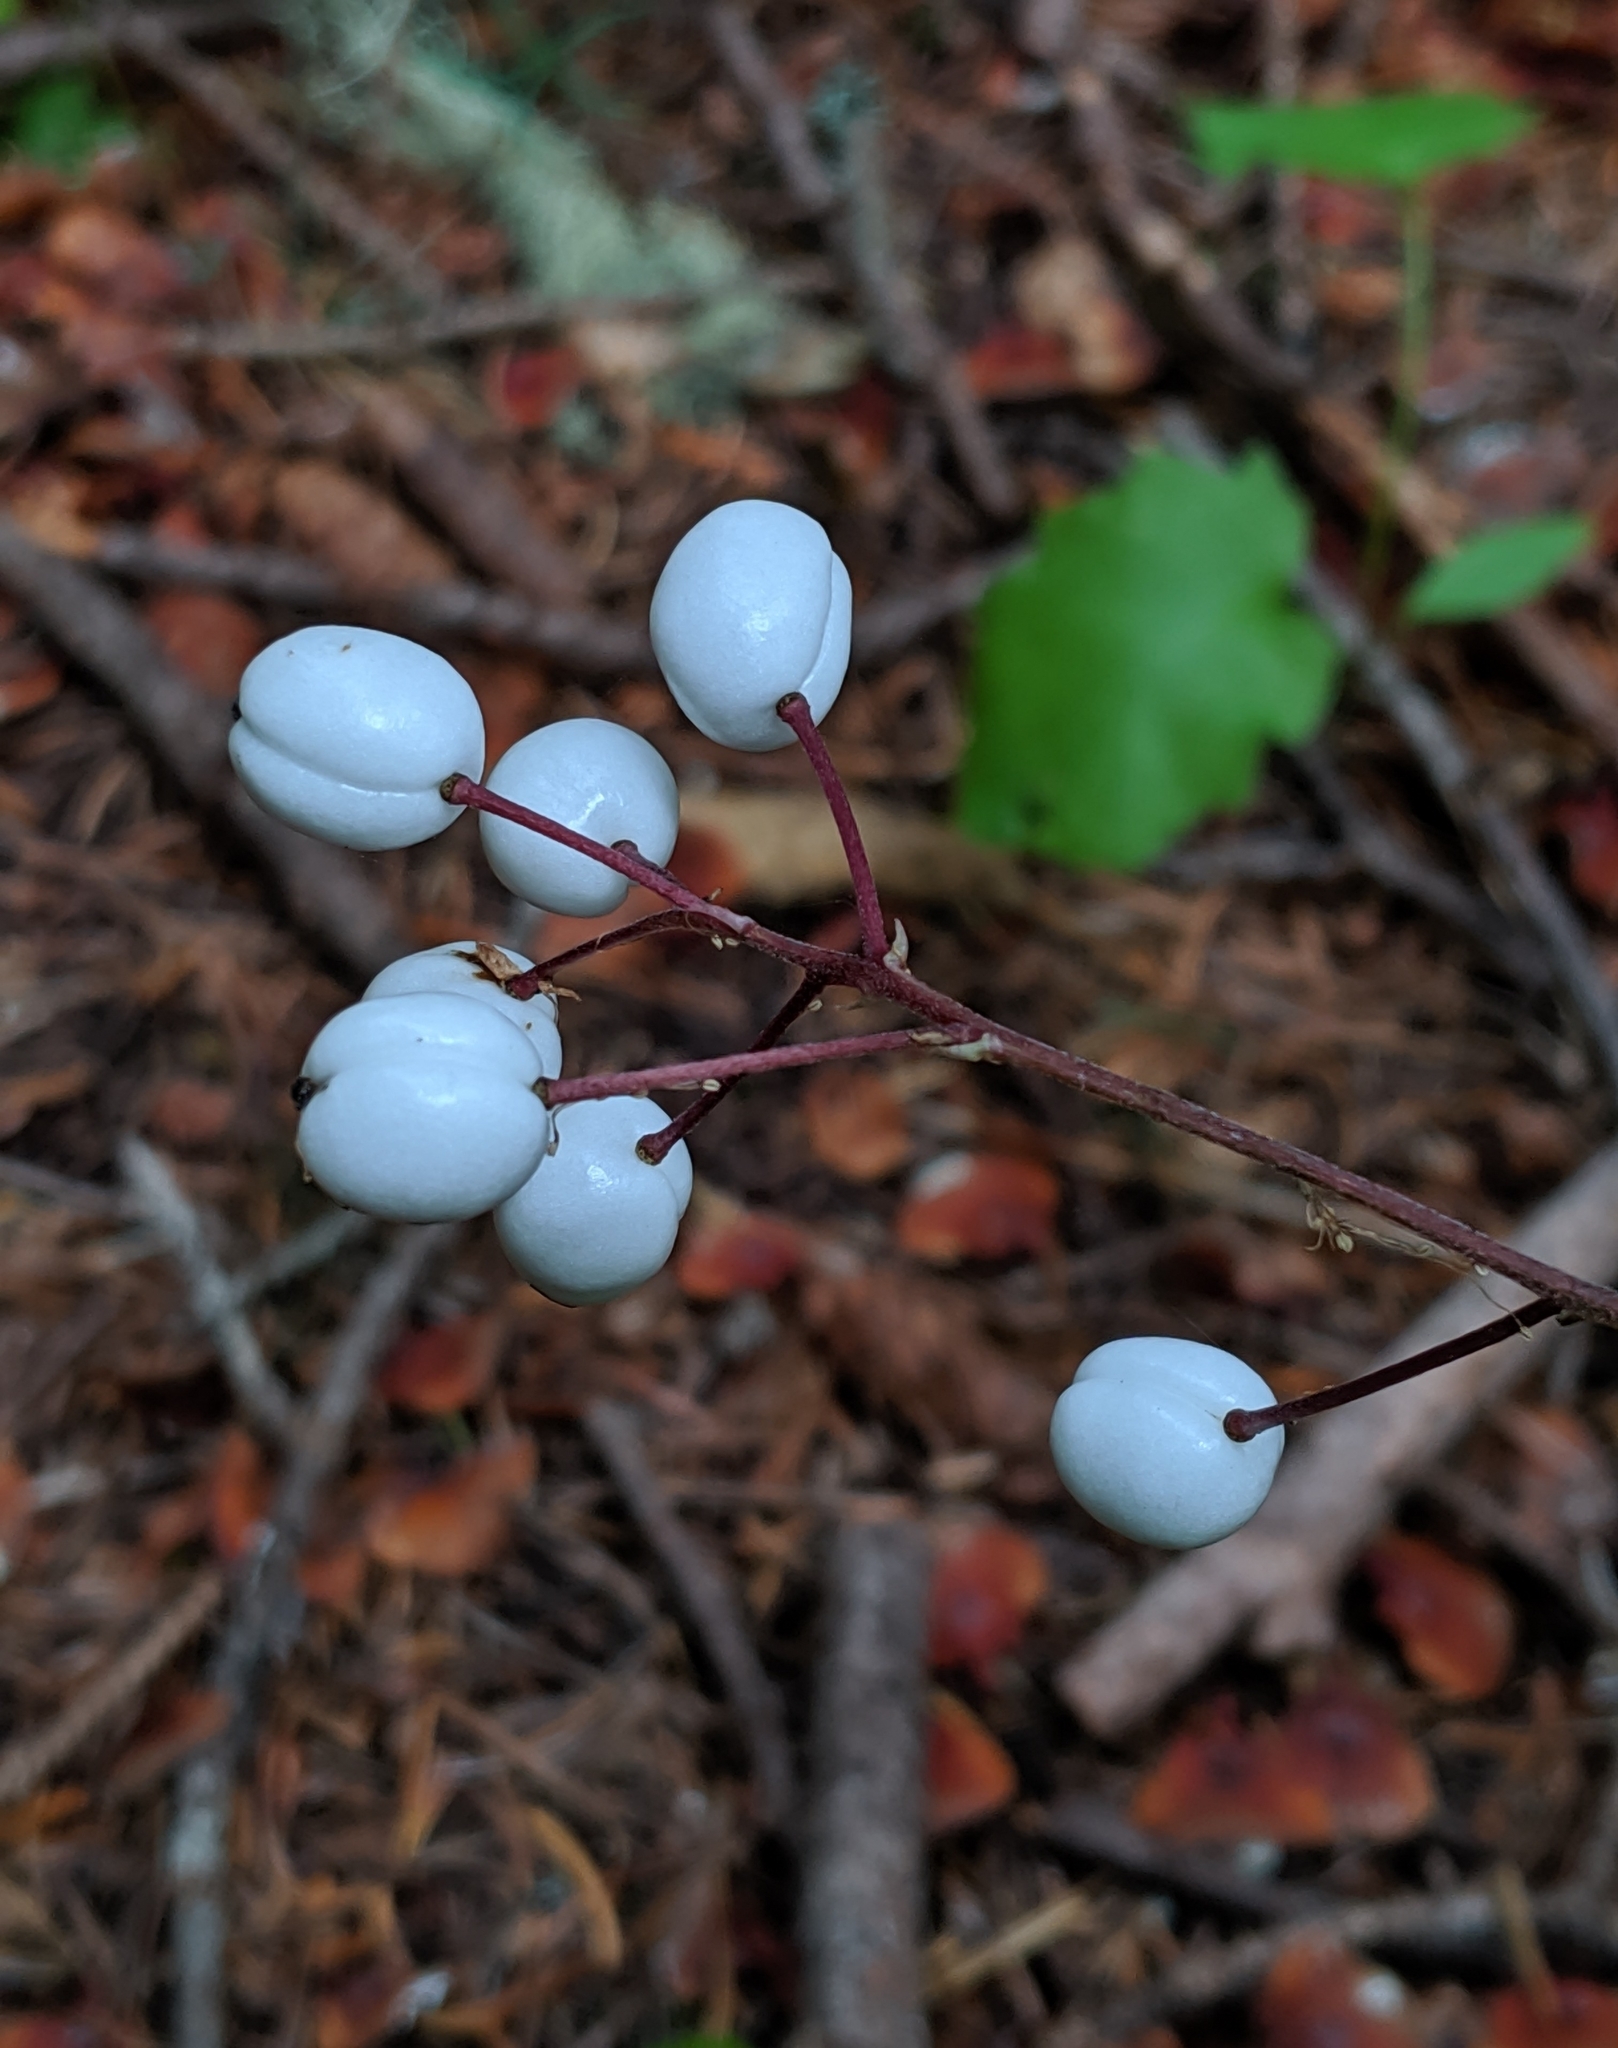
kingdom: Plantae
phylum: Tracheophyta
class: Magnoliopsida
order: Ranunculales
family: Ranunculaceae
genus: Actaea
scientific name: Actaea rubra
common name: Red baneberry
